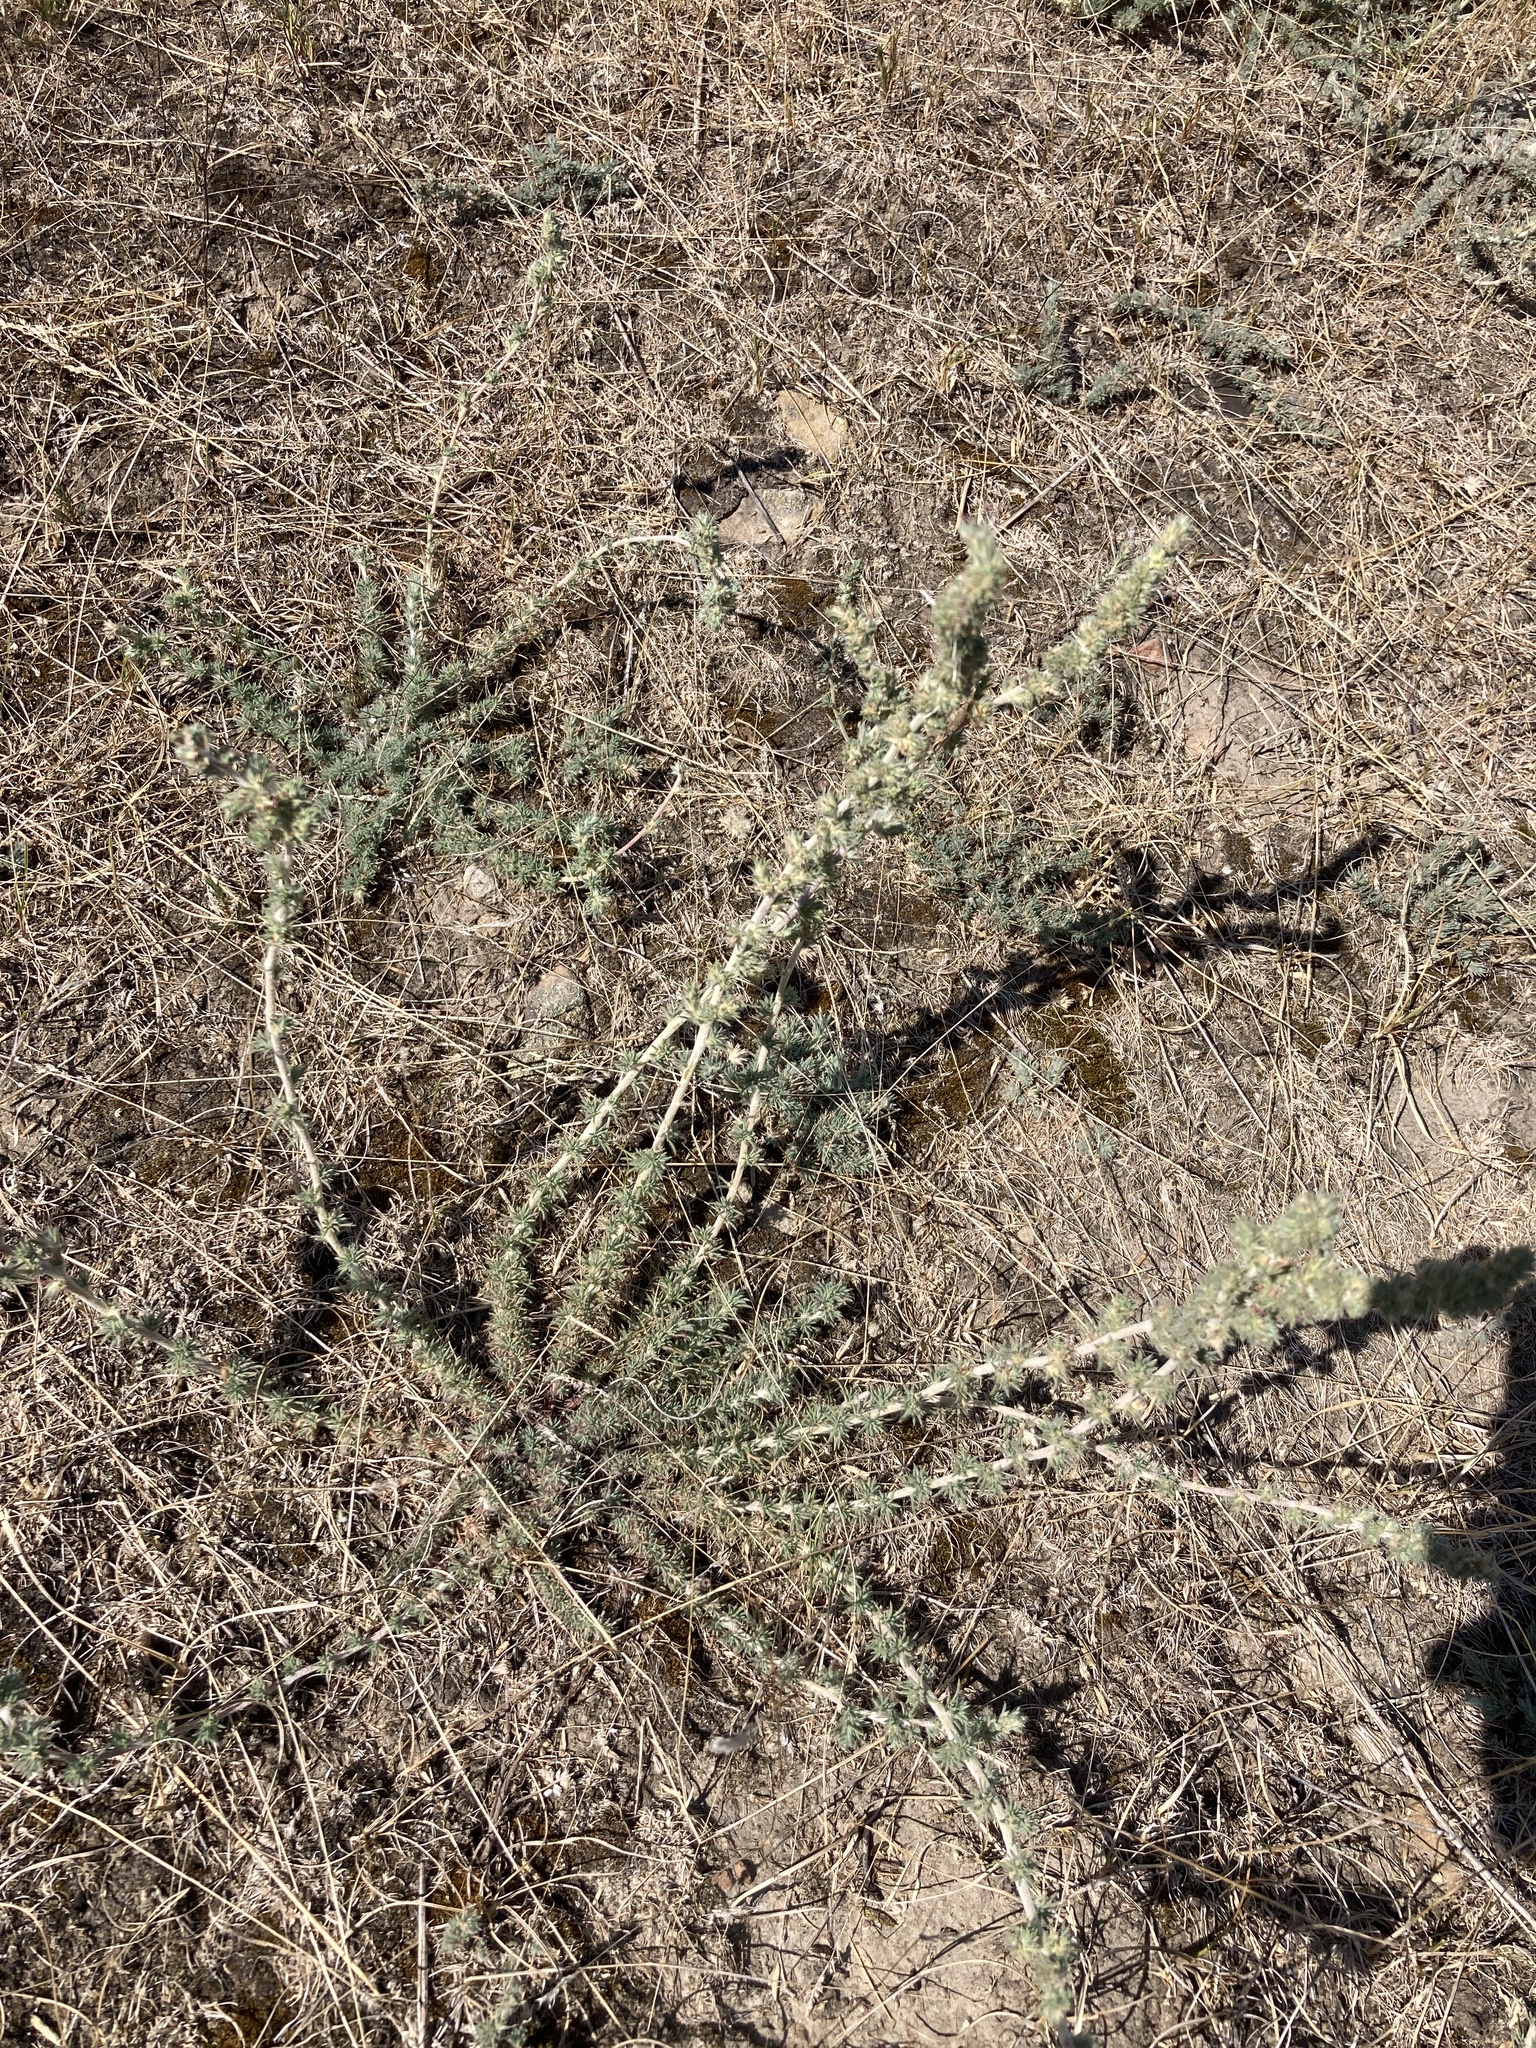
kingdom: Plantae
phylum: Tracheophyta
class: Magnoliopsida
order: Caryophyllales
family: Amaranthaceae
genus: Bassia
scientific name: Bassia prostrata
